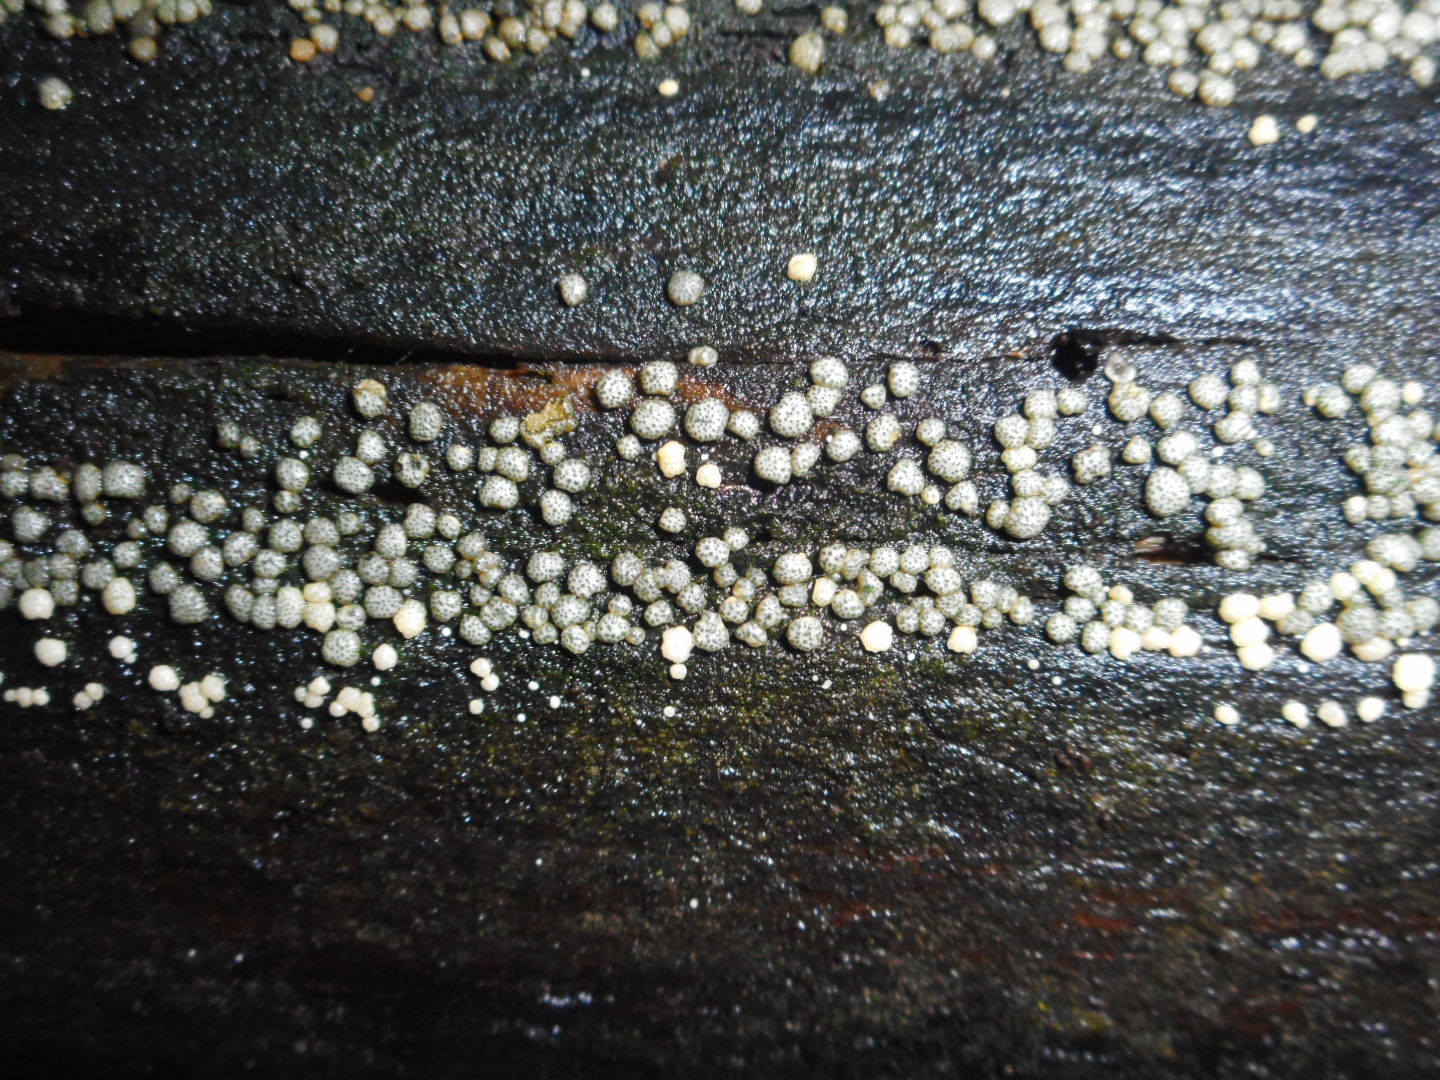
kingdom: Fungi
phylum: Ascomycota
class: Sordariomycetes
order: Hypocreales
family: Hypocreaceae
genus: Trichoderma
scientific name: Trichoderma strictipile
